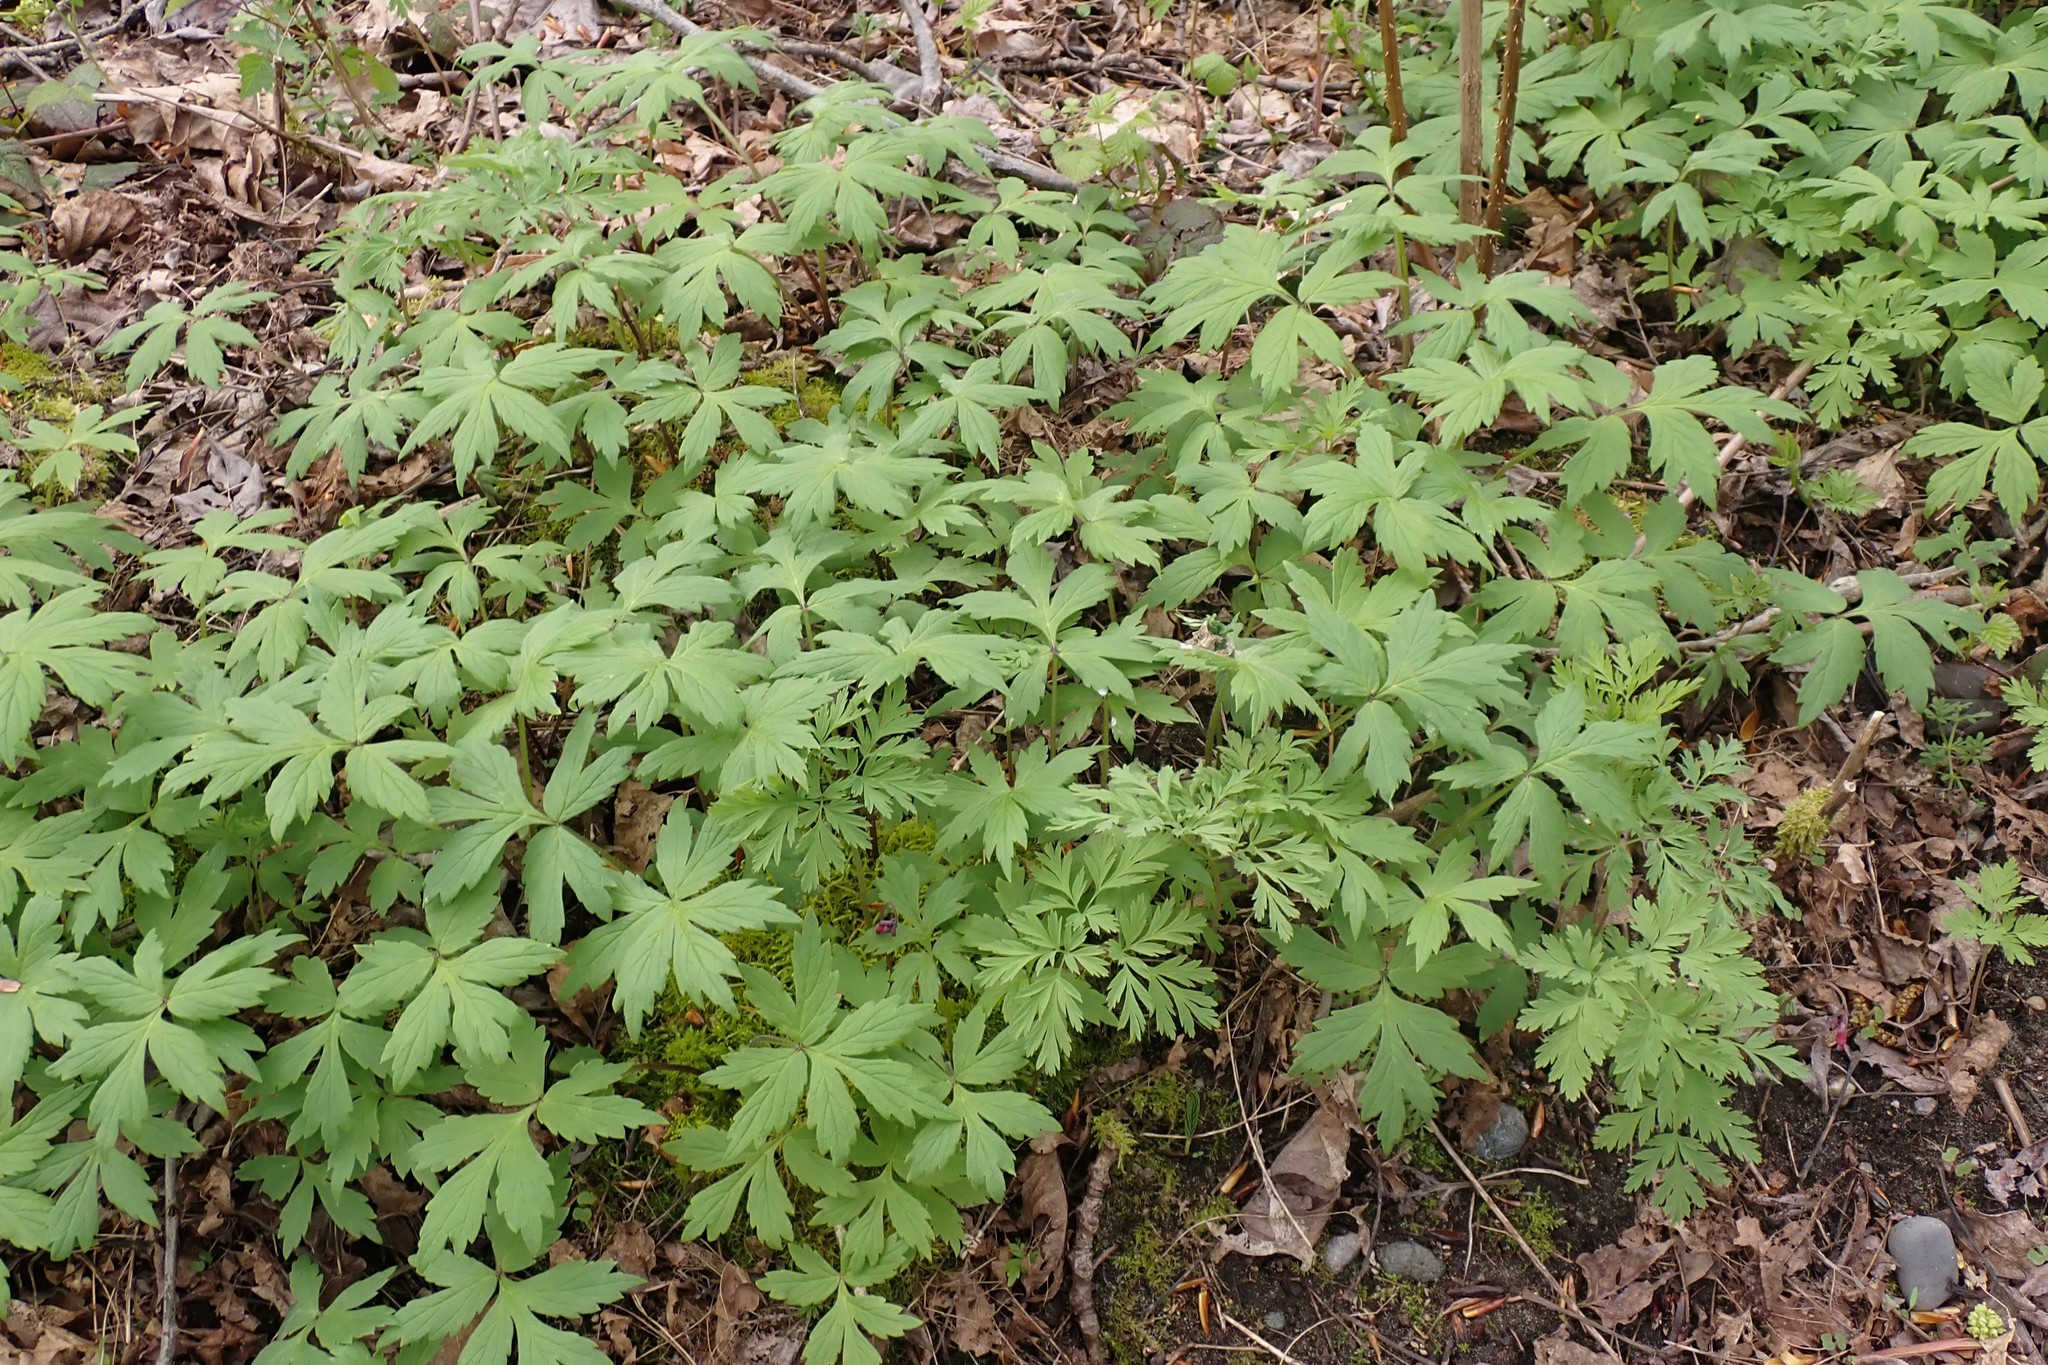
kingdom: Plantae
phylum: Tracheophyta
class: Magnoliopsida
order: Boraginales
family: Hydrophyllaceae
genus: Hydrophyllum
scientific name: Hydrophyllum tenuipes
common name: Pacific waterleaf
